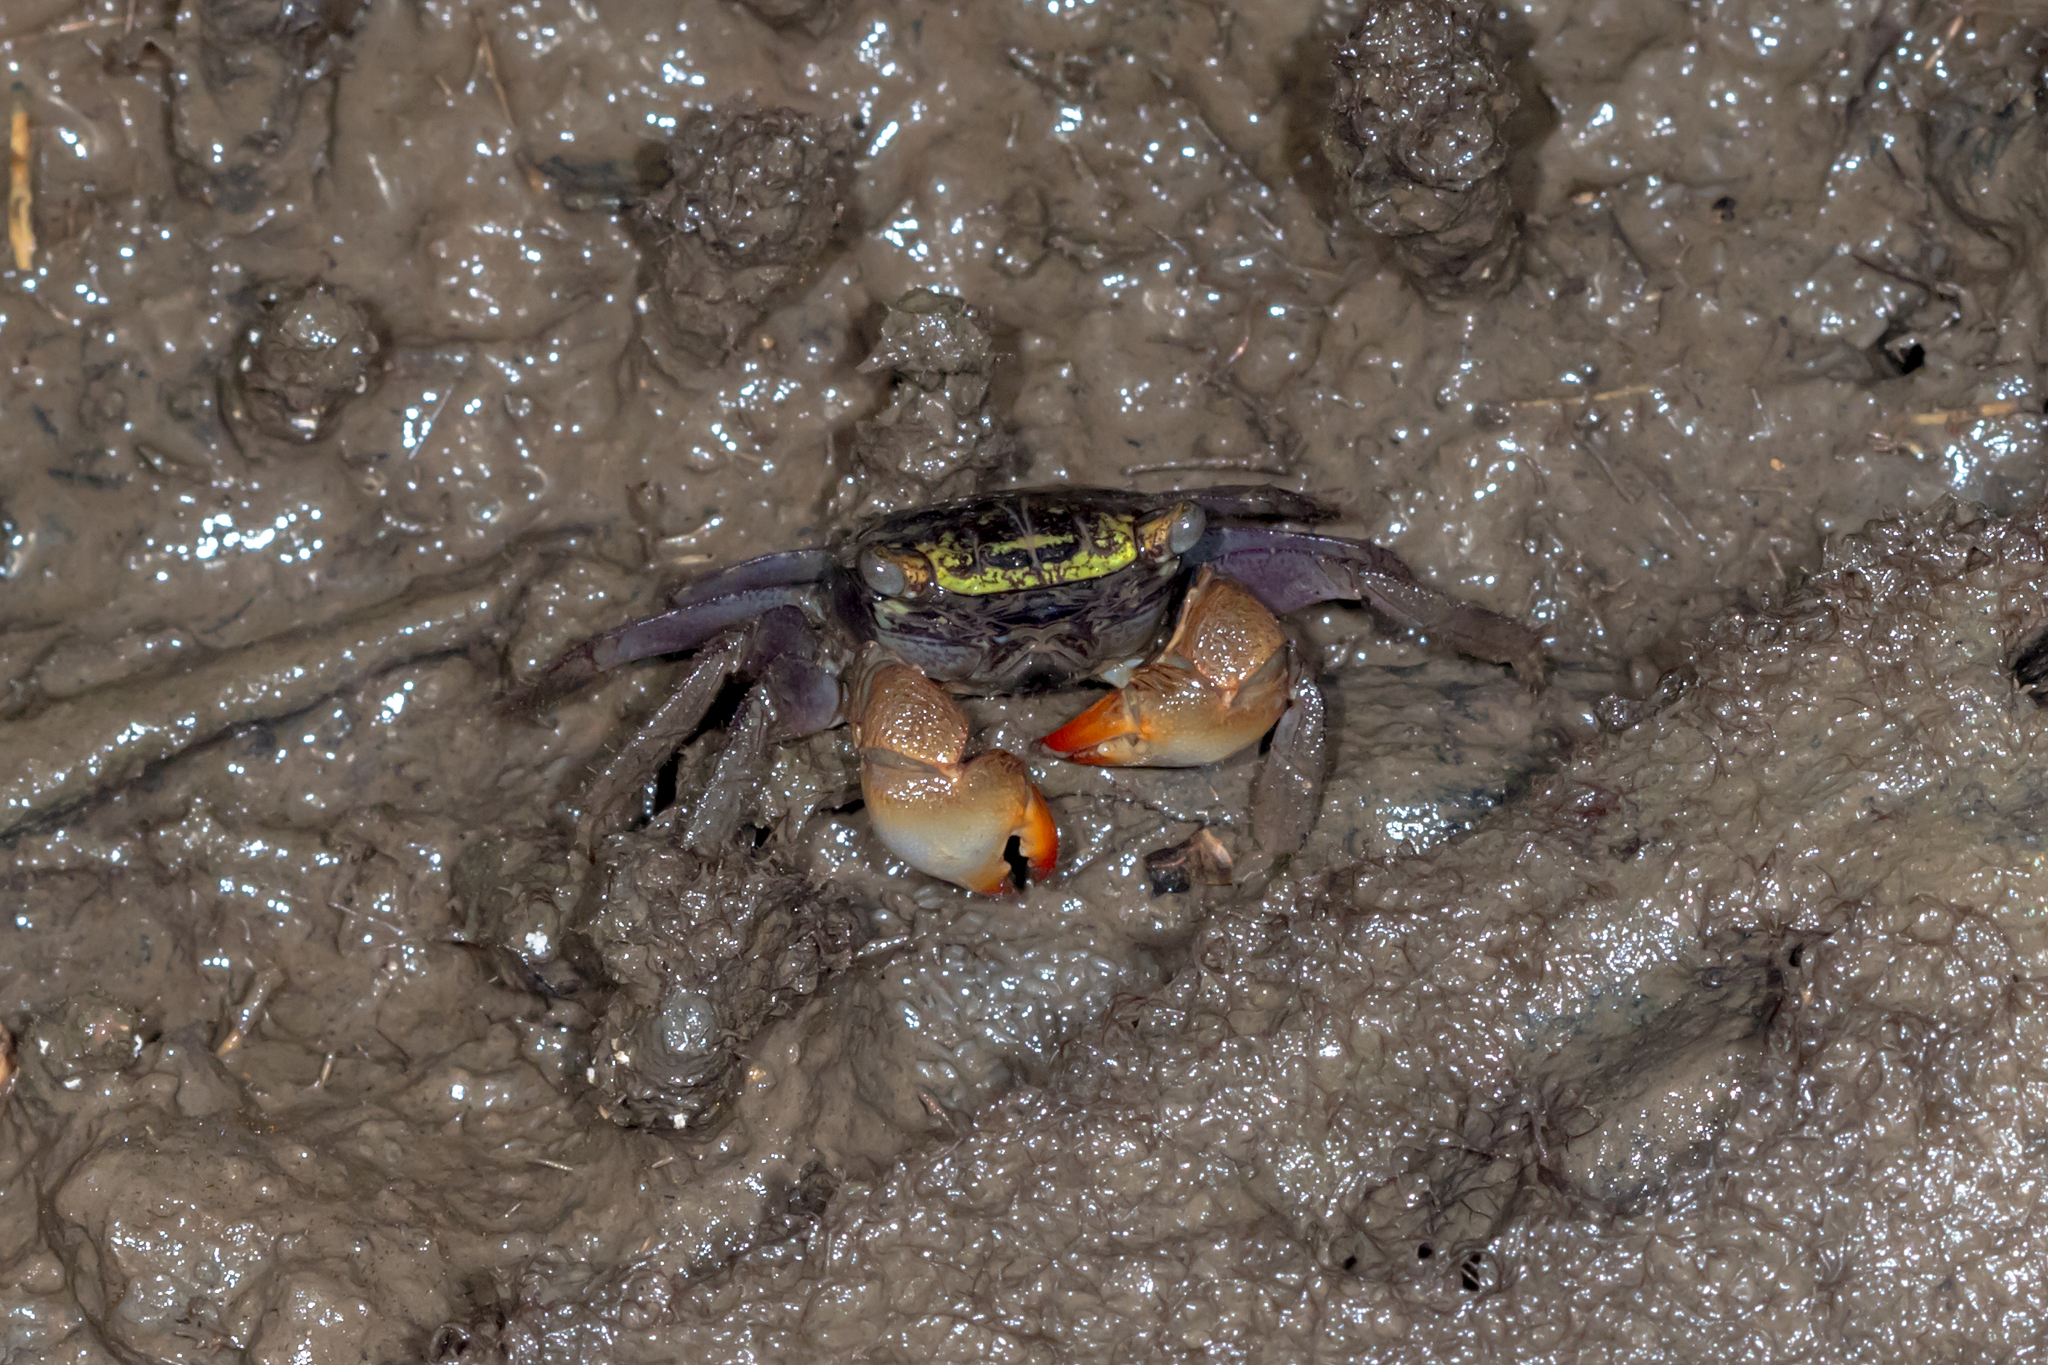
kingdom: Animalia
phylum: Arthropoda
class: Malacostraca
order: Decapoda
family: Sesarmidae
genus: Parasesarma
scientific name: Parasesarma erythodactylum
